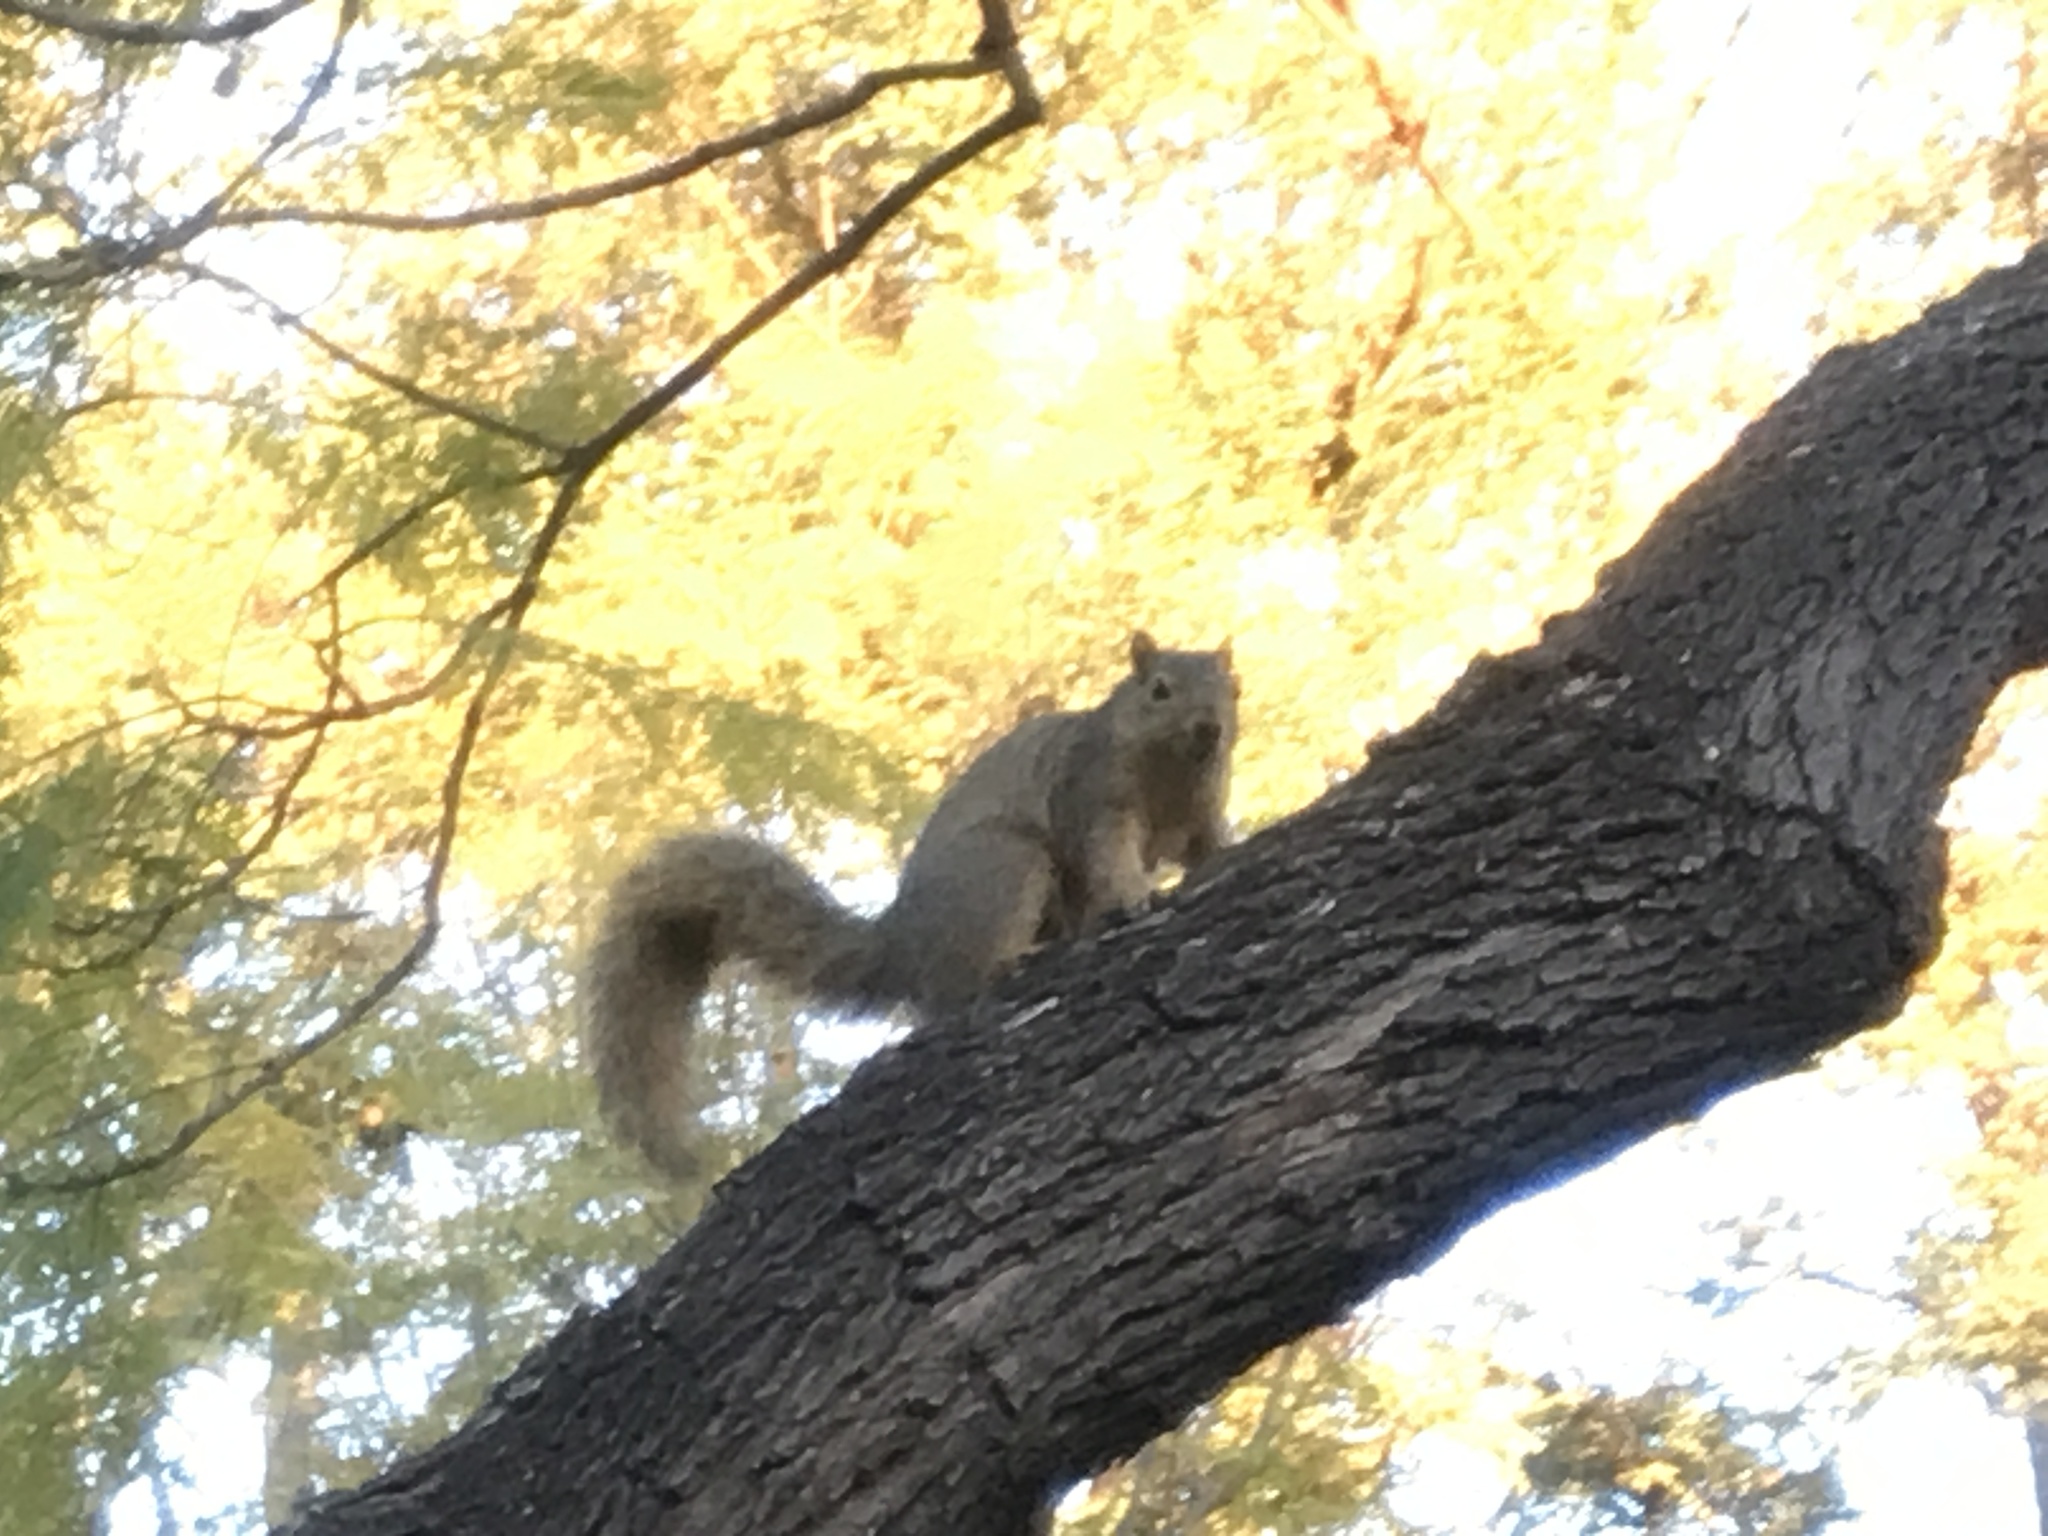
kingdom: Animalia
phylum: Chordata
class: Mammalia
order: Rodentia
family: Sciuridae
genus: Sciurus
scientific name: Sciurus niger
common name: Fox squirrel
